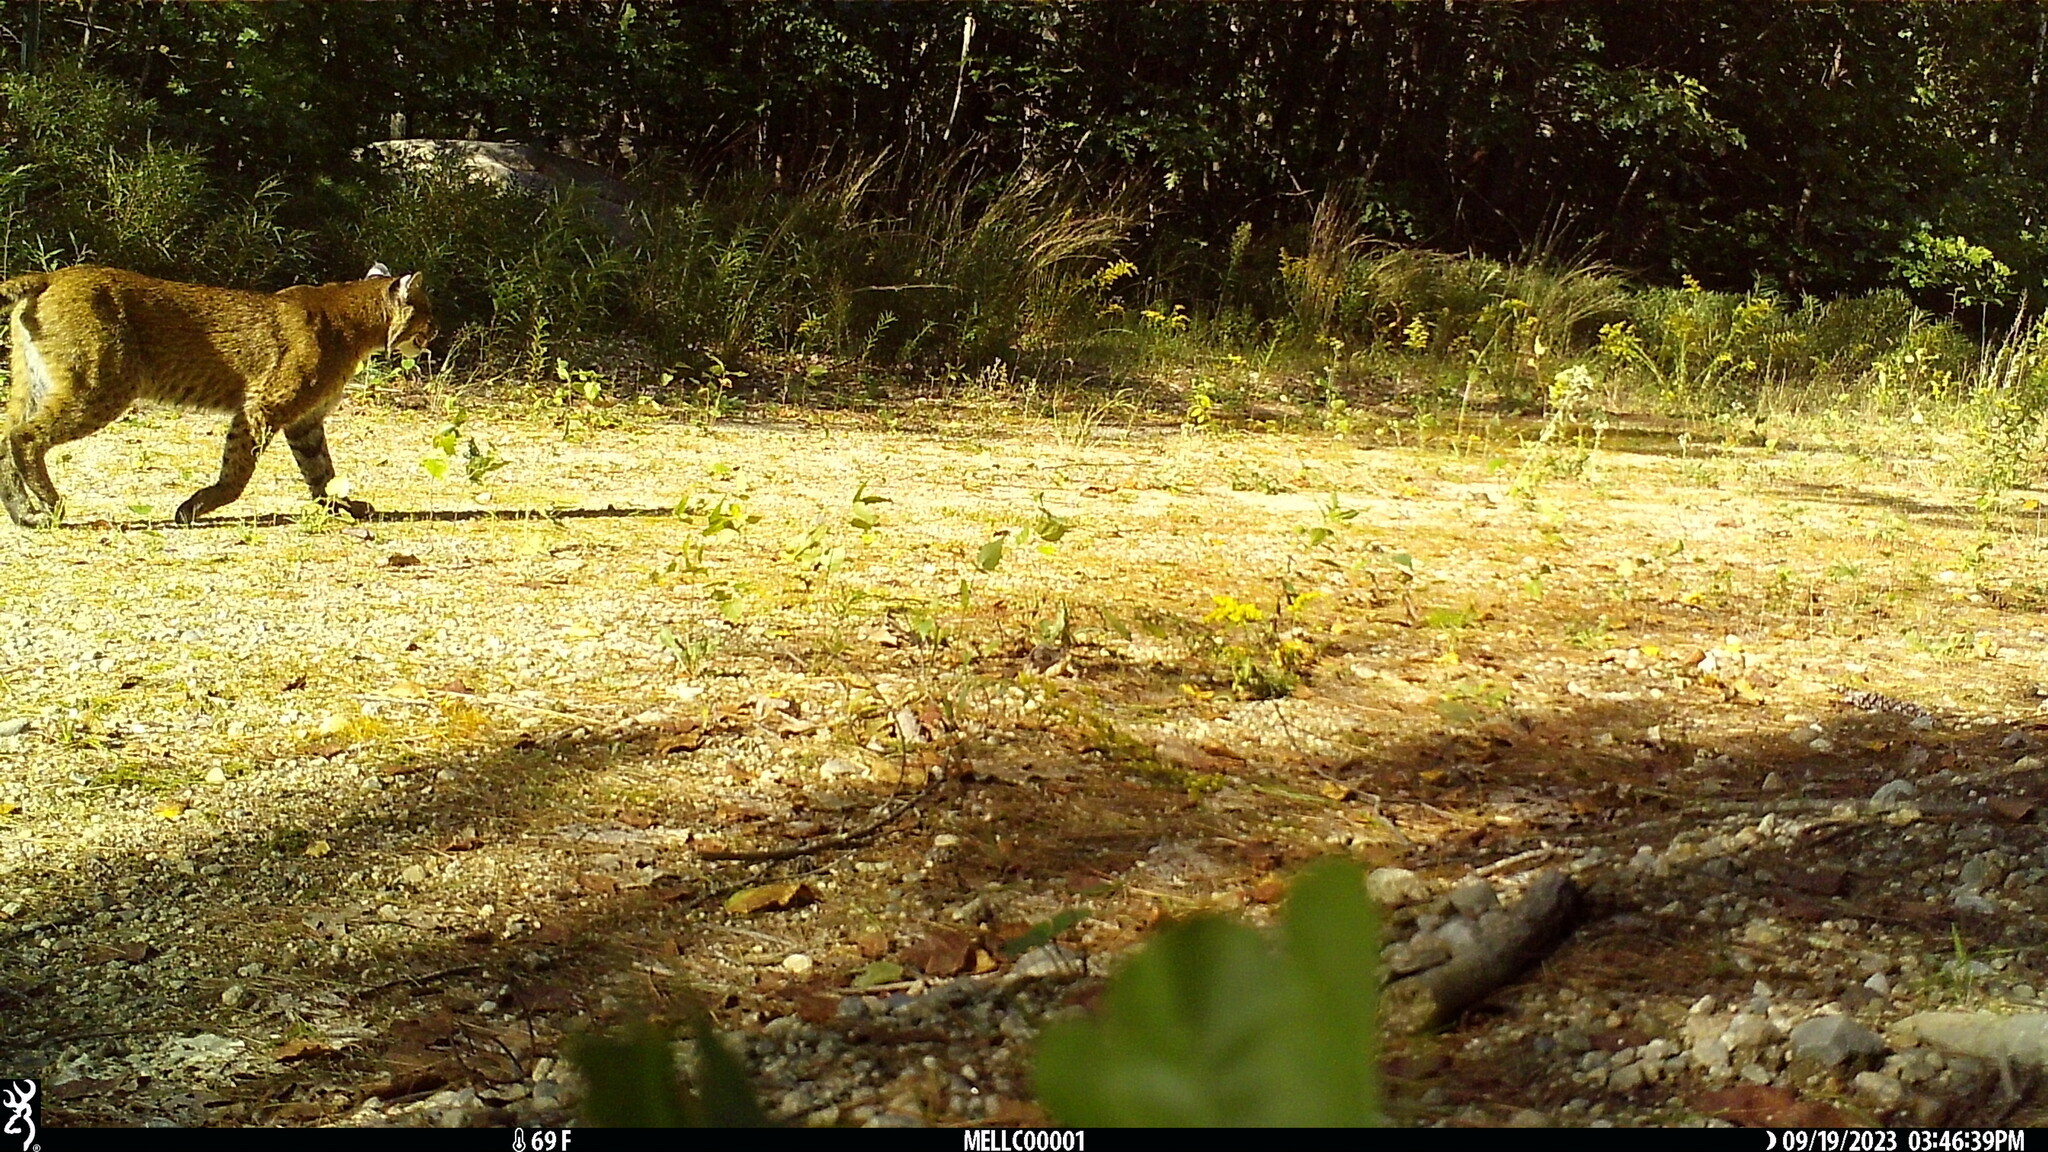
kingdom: Animalia
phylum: Chordata
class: Mammalia
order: Carnivora
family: Felidae
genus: Lynx
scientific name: Lynx rufus
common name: Bobcat
